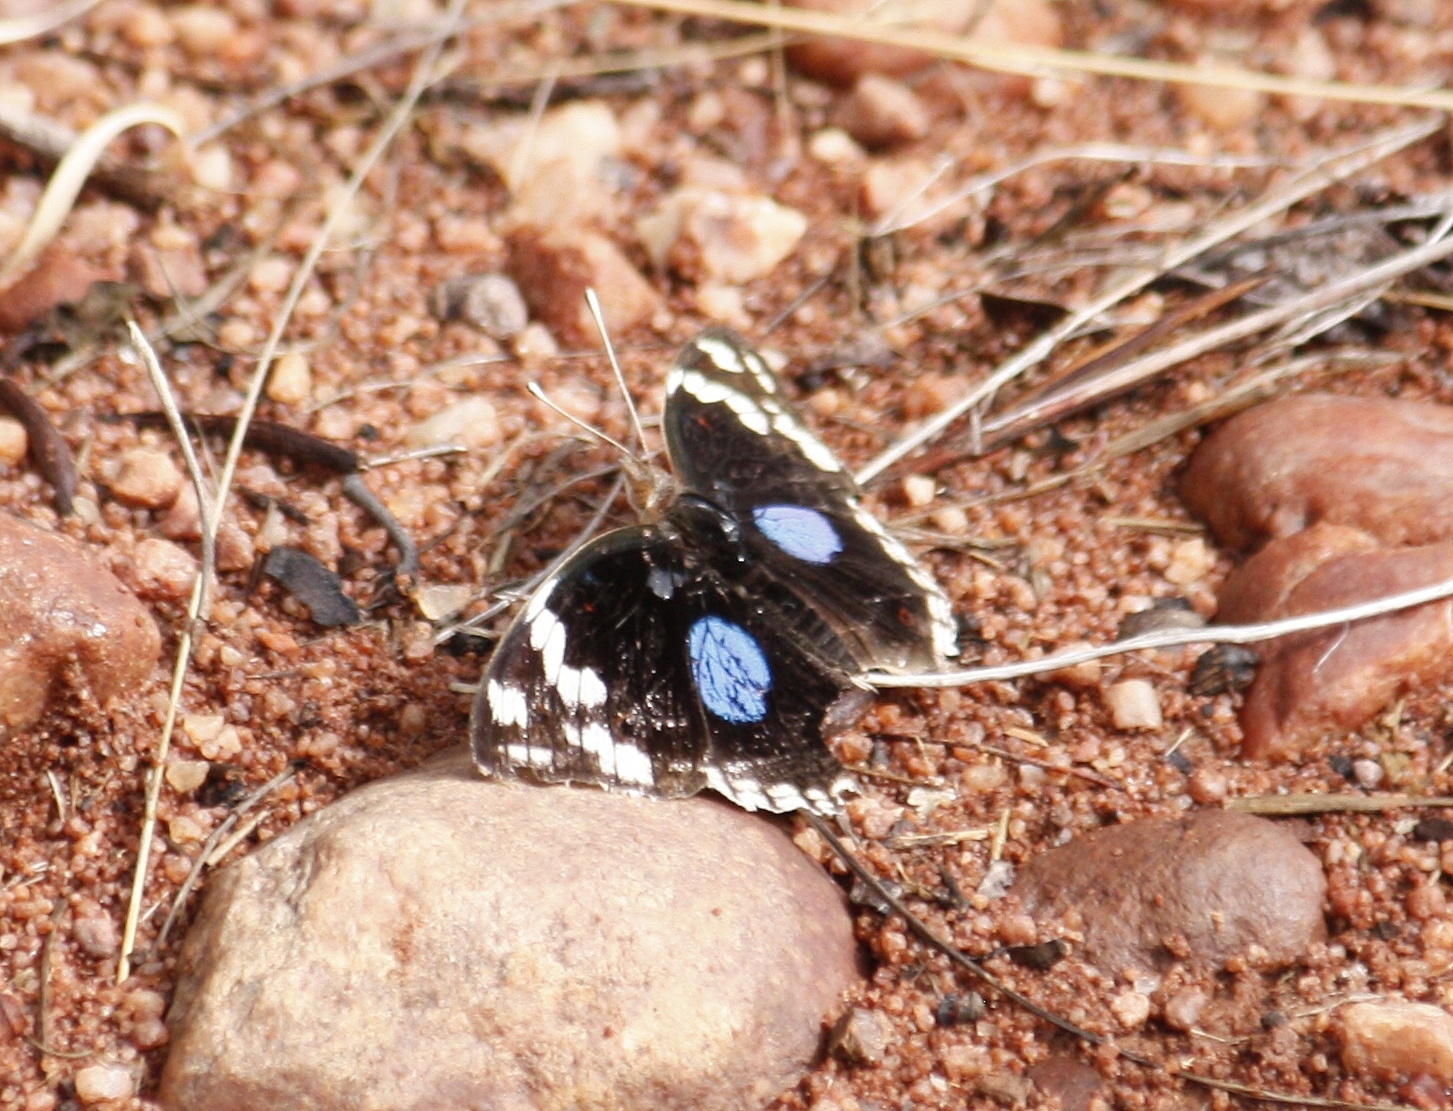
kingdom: Animalia
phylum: Arthropoda
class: Insecta
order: Lepidoptera
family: Nymphalidae
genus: Junonia
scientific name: Junonia oenone
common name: Dark blue pansy
